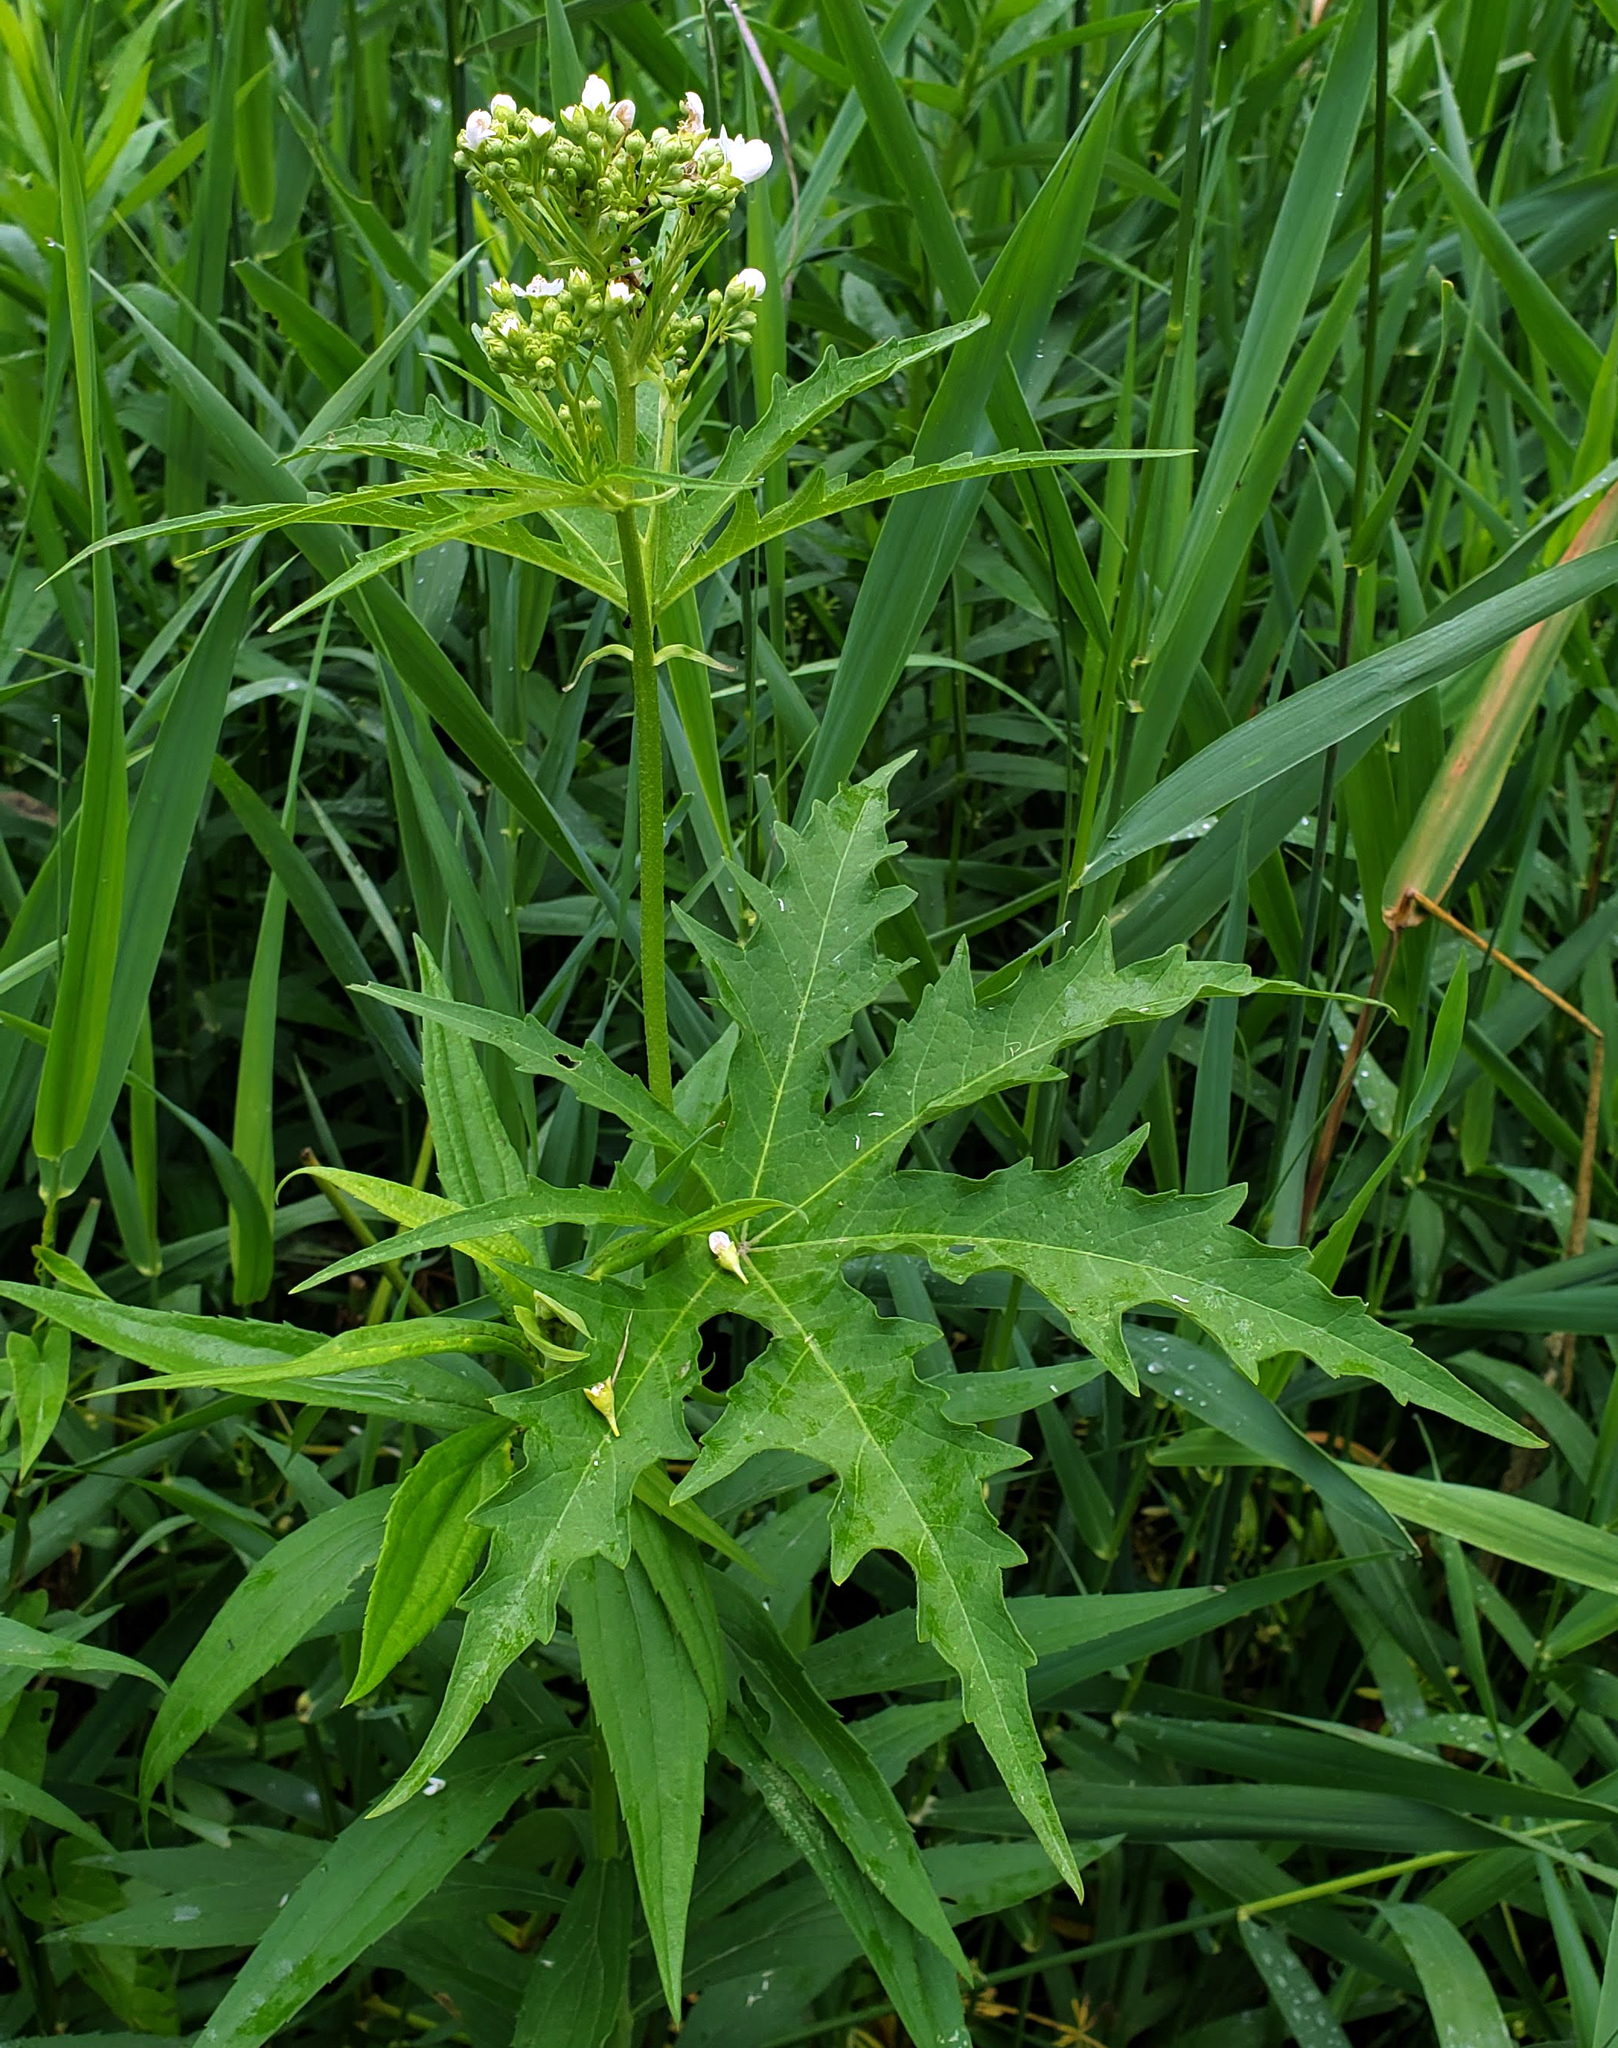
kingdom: Plantae
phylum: Tracheophyta
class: Magnoliopsida
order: Malvales
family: Malvaceae
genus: Napaea
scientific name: Napaea dioica
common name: Glade-mallow
